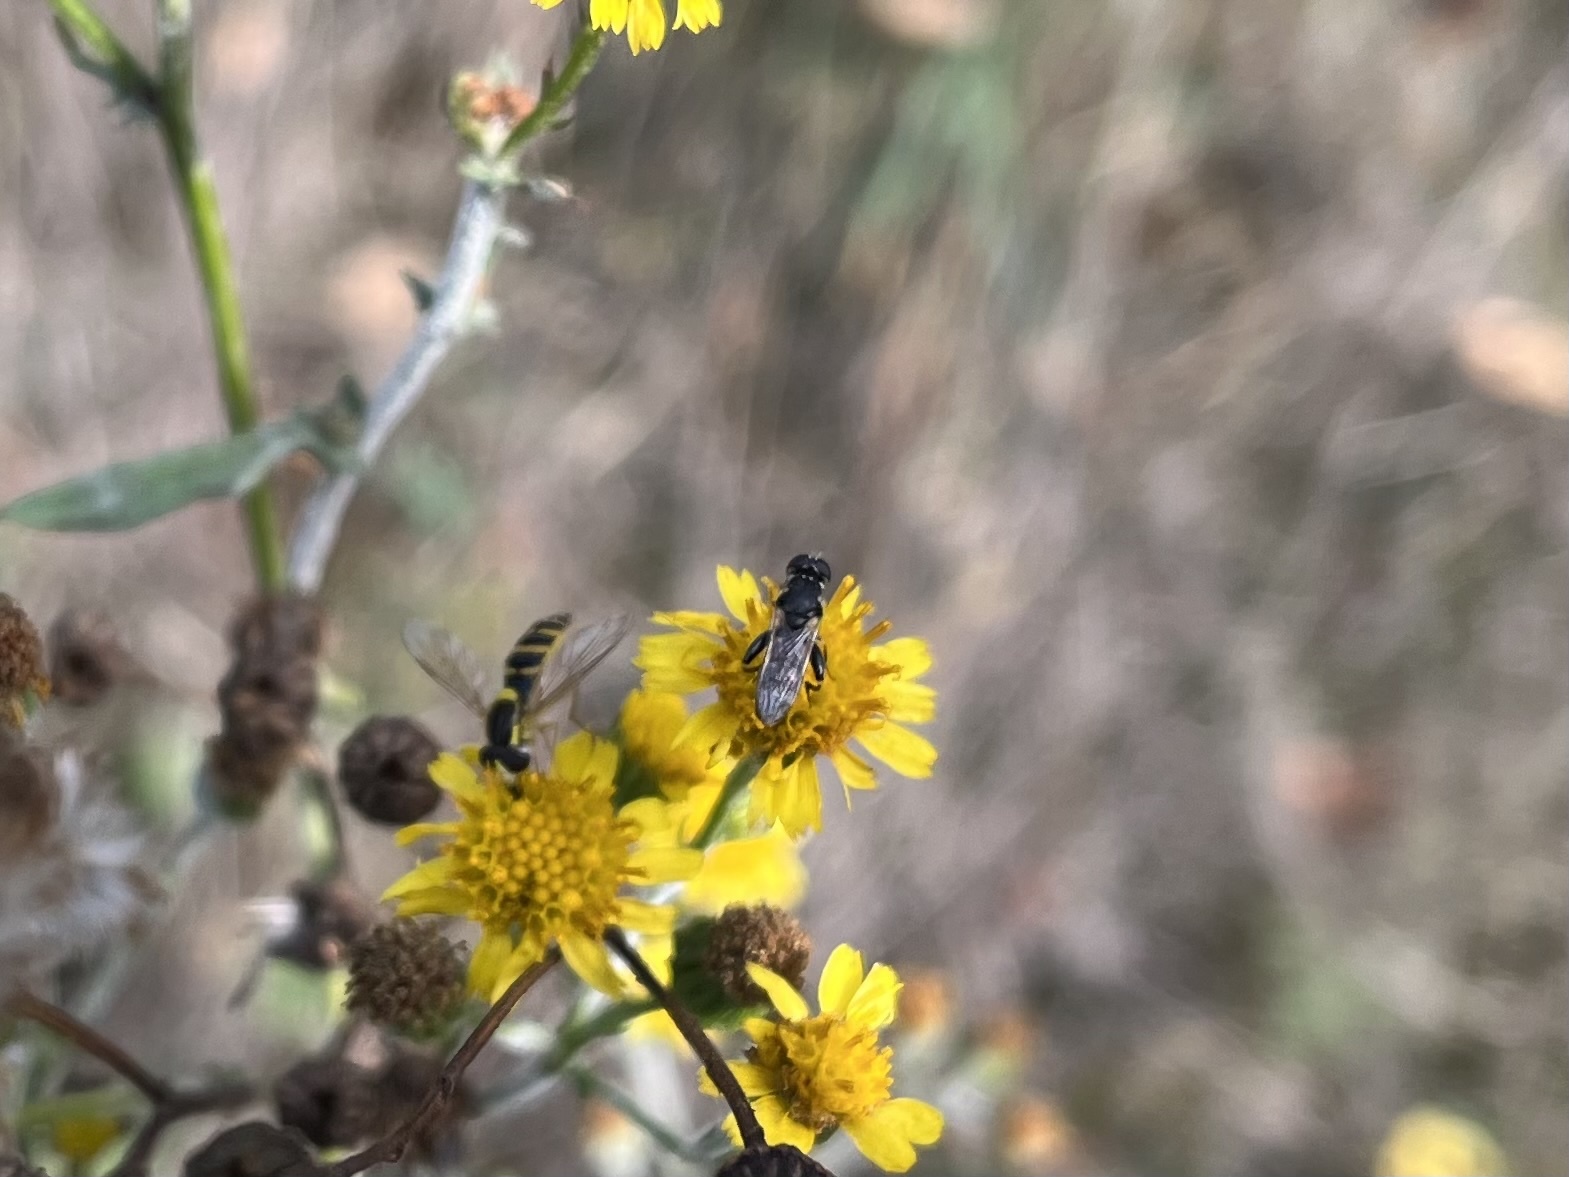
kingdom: Animalia
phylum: Arthropoda
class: Insecta
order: Diptera
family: Syrphidae
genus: Syritta
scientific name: Syritta pipiens
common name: Hover fly
